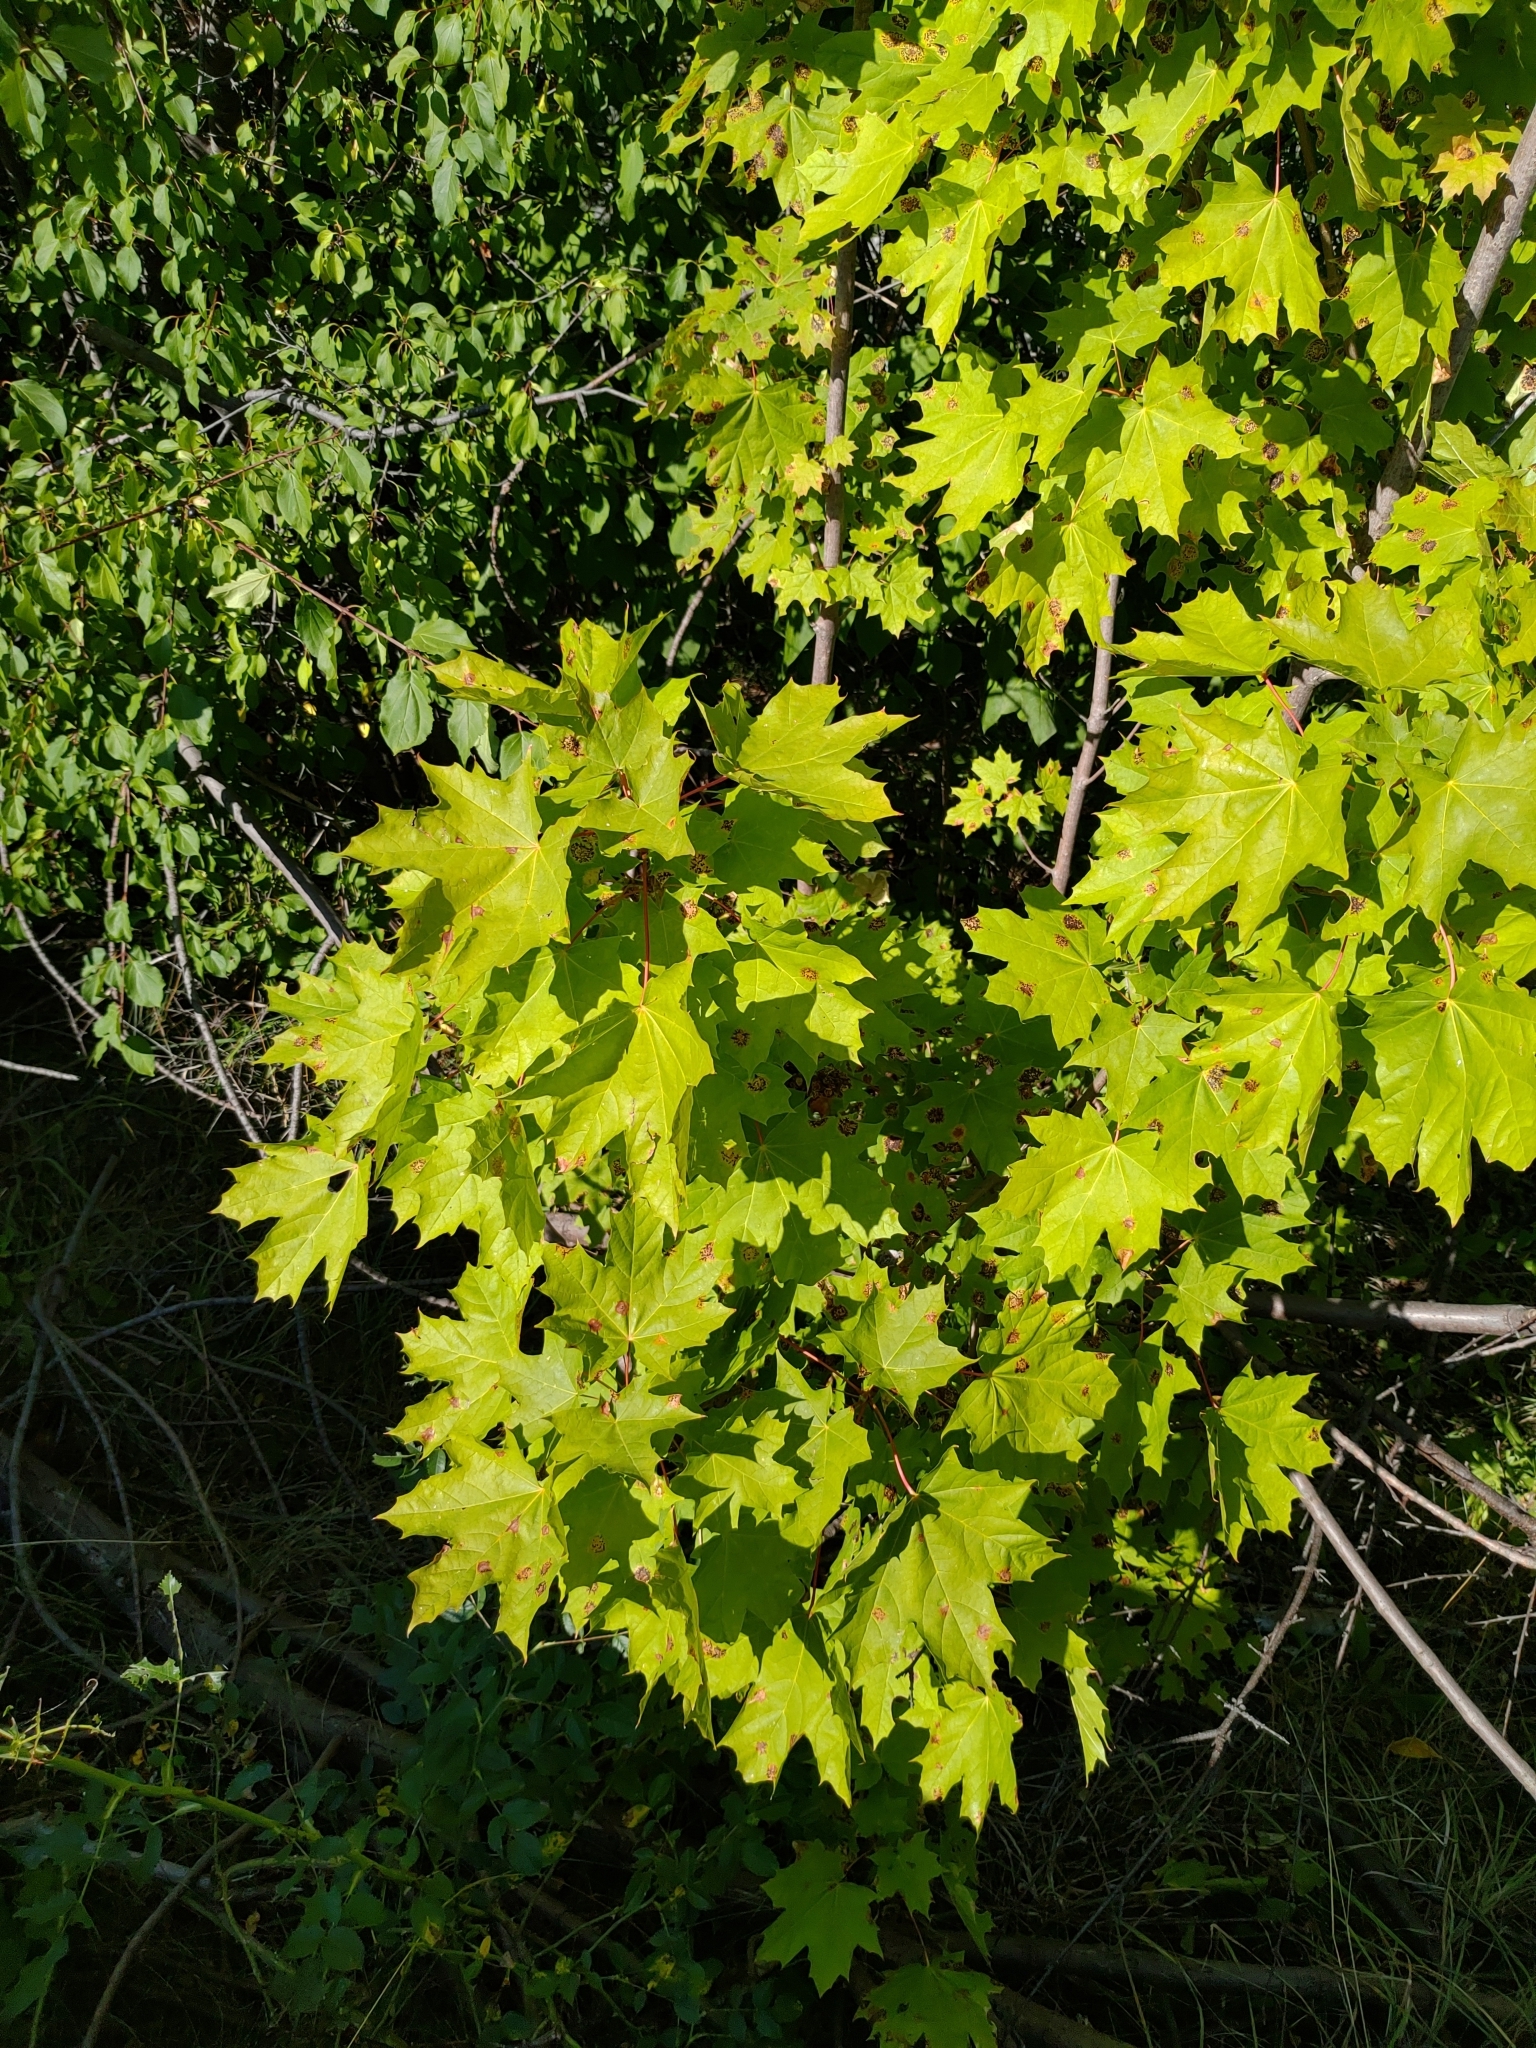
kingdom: Plantae
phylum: Tracheophyta
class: Magnoliopsida
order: Sapindales
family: Sapindaceae
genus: Acer
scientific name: Acer platanoides
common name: Norway maple
